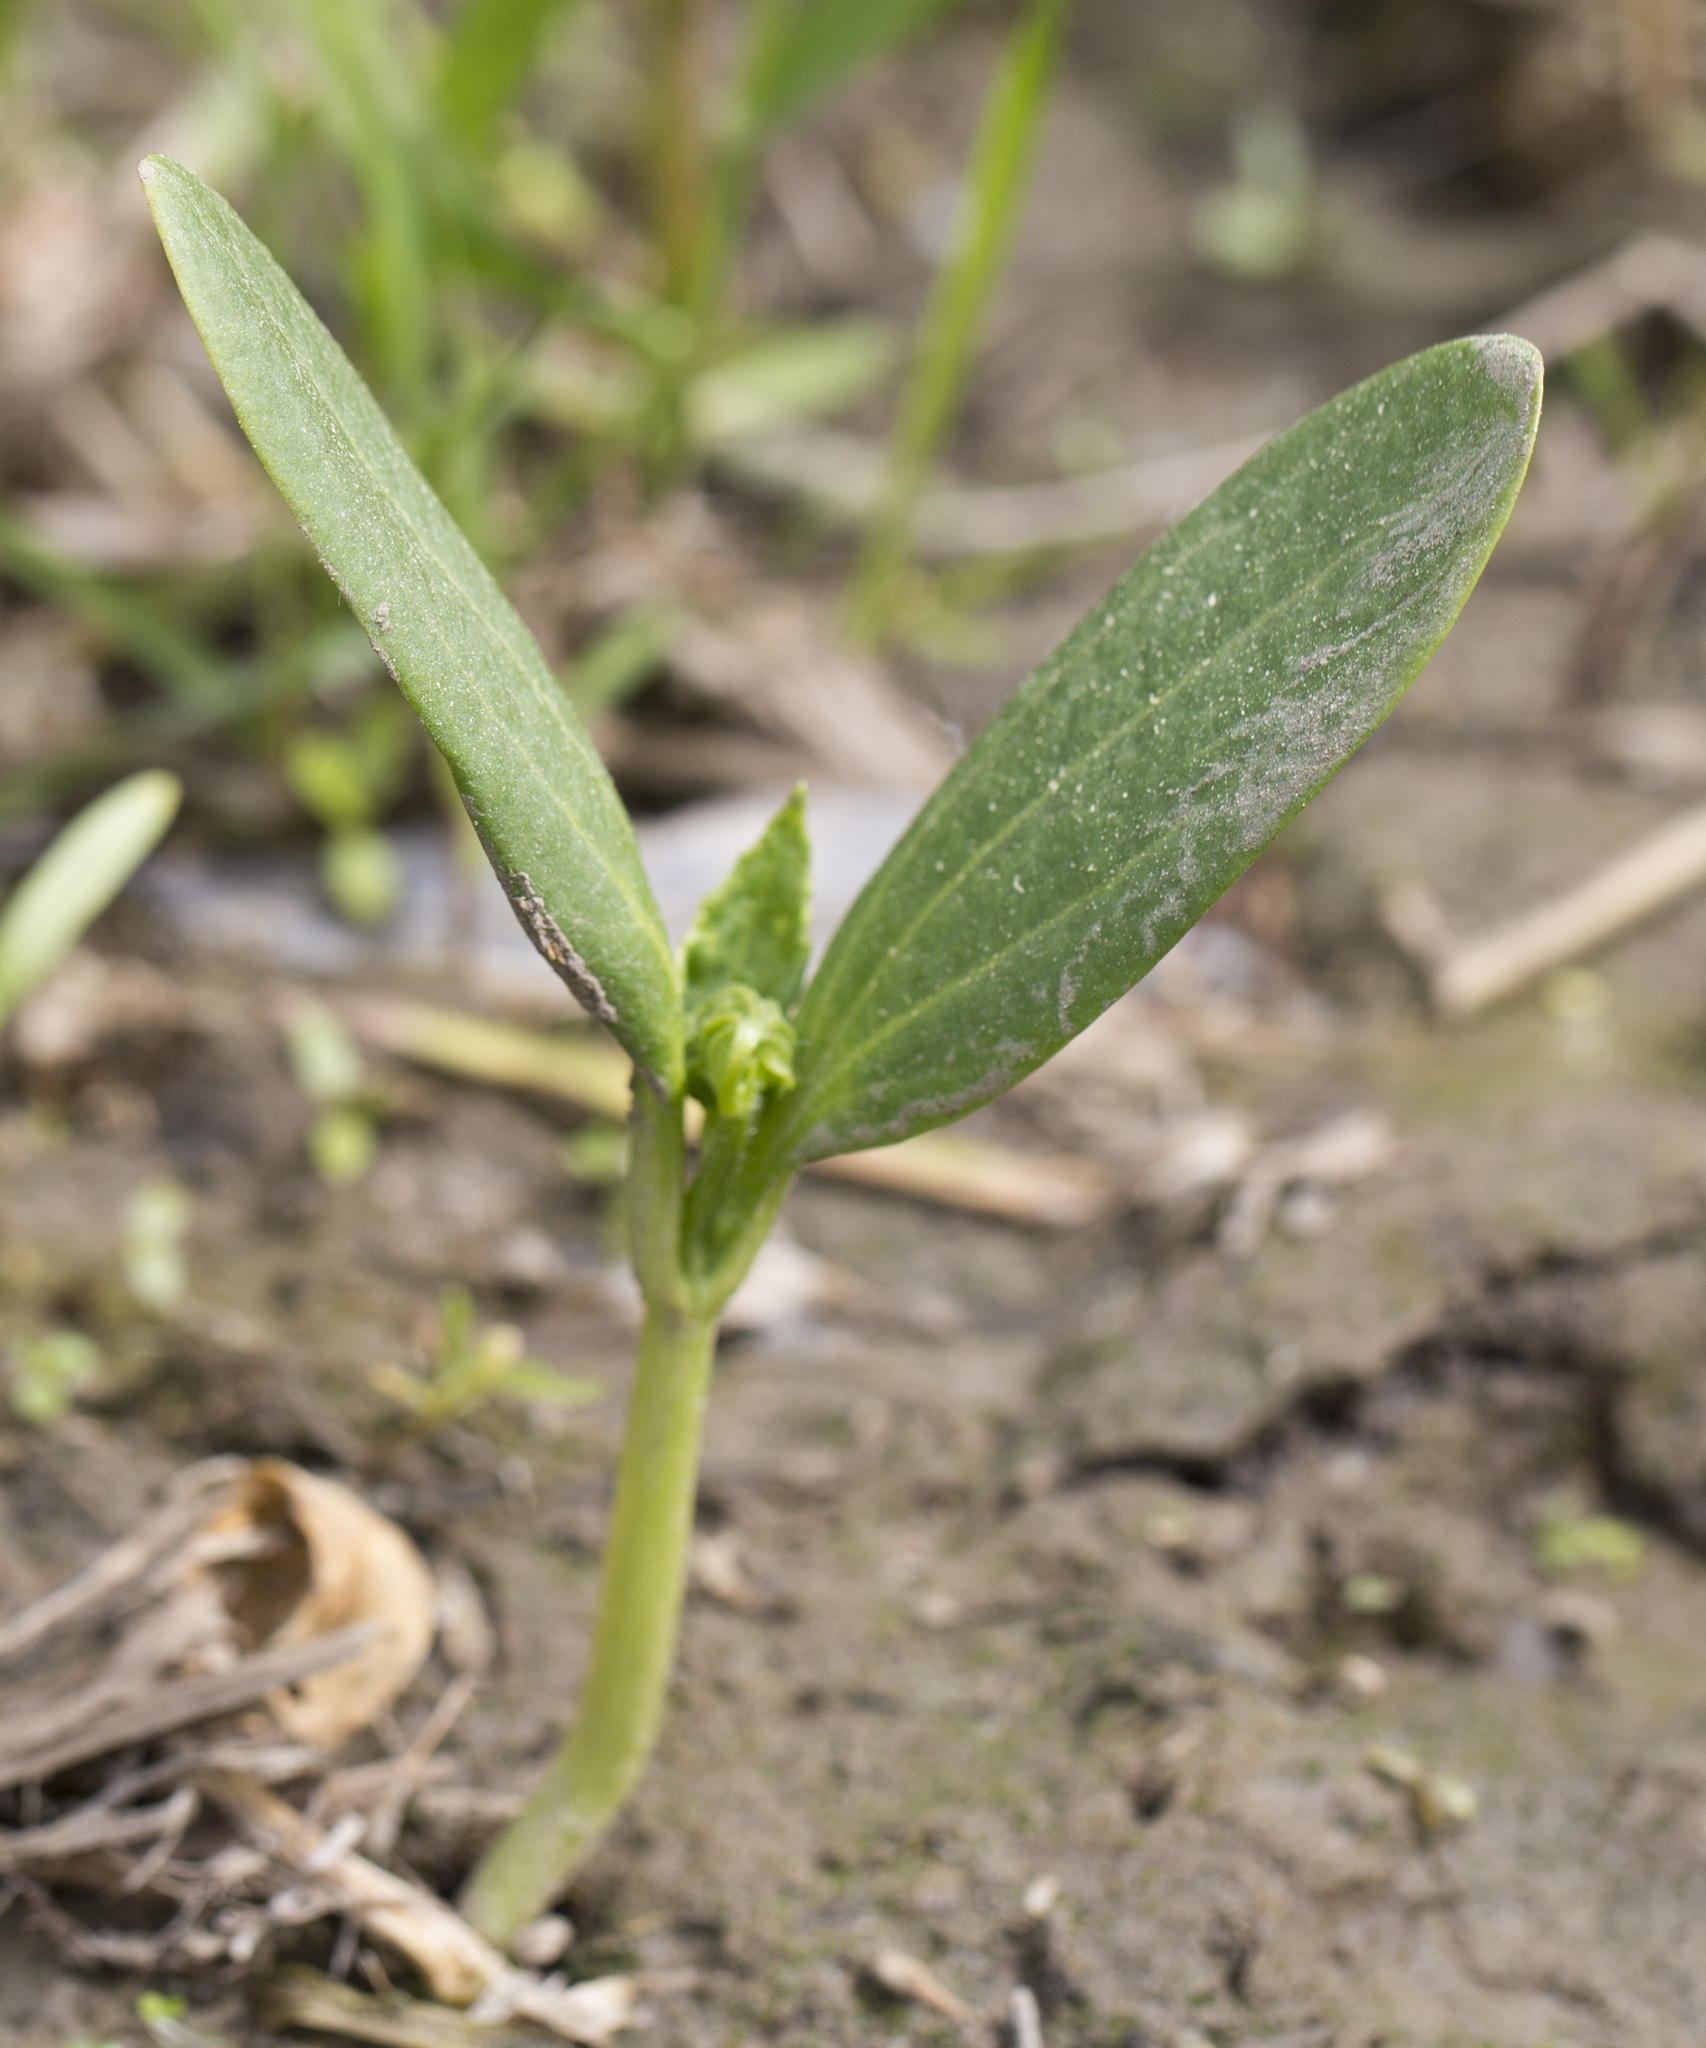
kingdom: Plantae
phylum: Tracheophyta
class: Magnoliopsida
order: Cucurbitales
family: Cucurbitaceae
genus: Echinocystis
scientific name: Echinocystis lobata
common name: Wild cucumber
